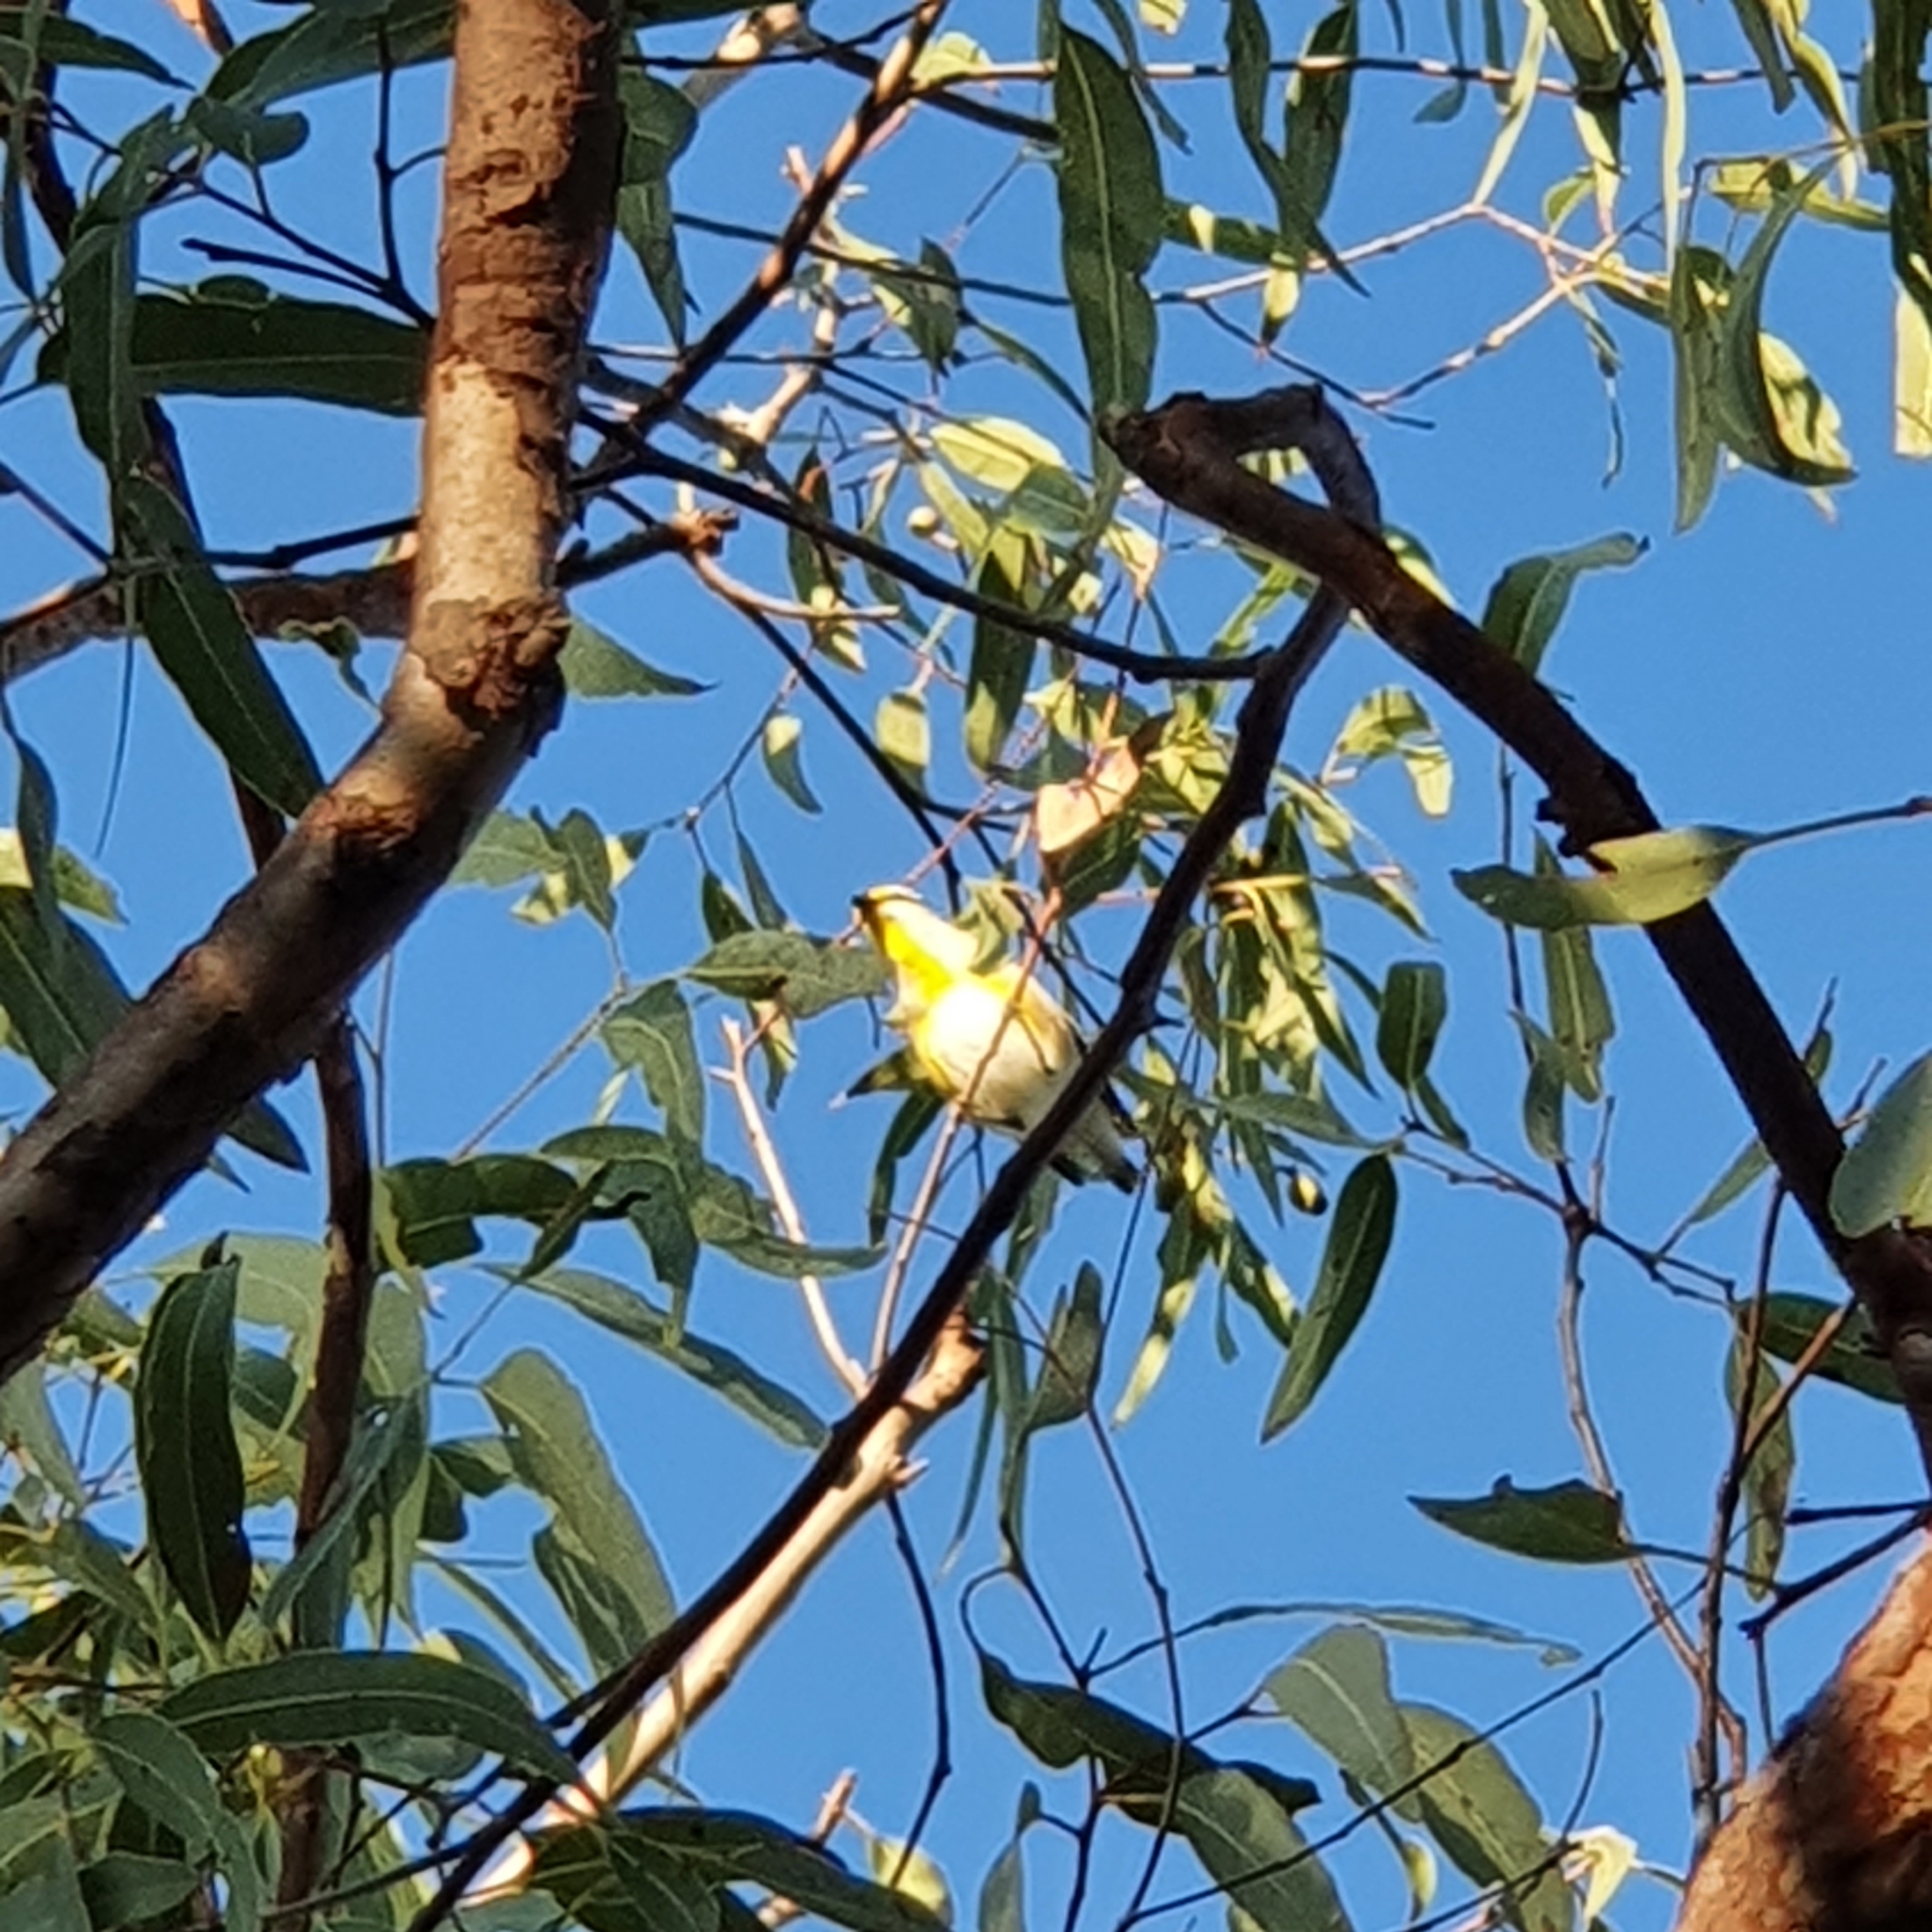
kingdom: Animalia
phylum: Chordata
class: Aves
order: Passeriformes
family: Pardalotidae
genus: Pardalotus
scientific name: Pardalotus striatus
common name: Striated pardalote
